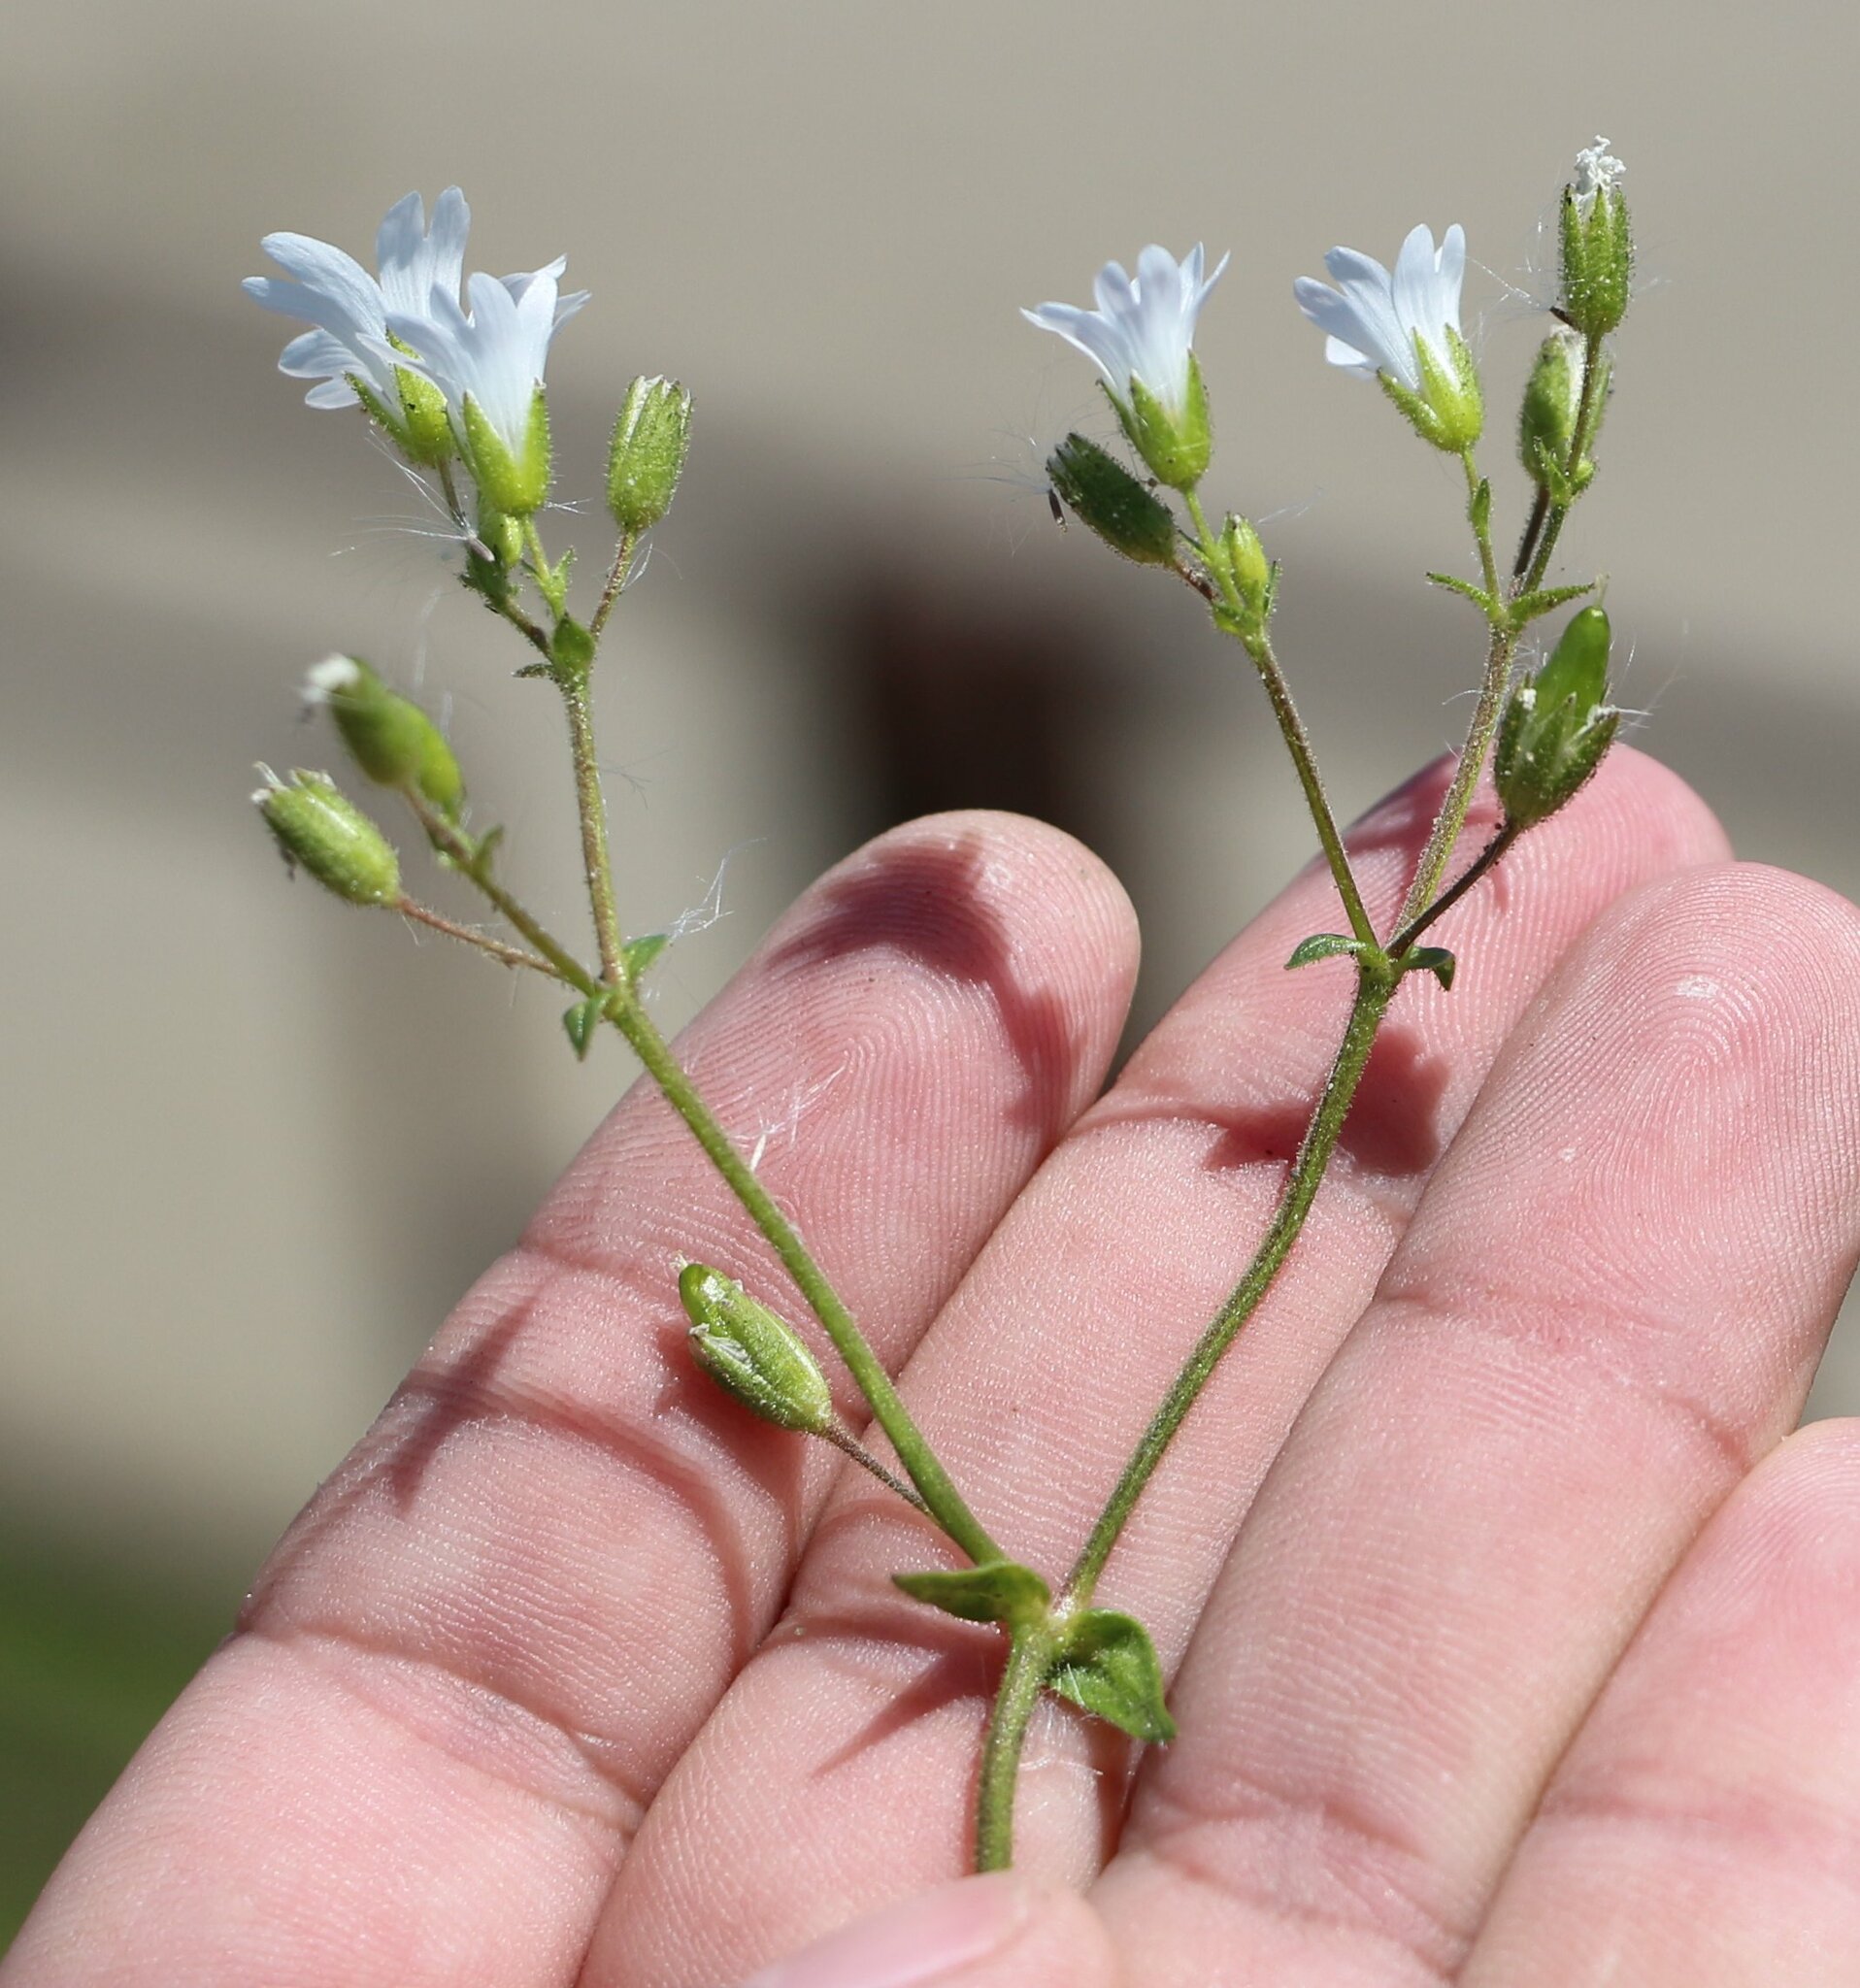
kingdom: Plantae
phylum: Tracheophyta
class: Magnoliopsida
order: Caryophyllales
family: Caryophyllaceae
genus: Dichodon
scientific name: Dichodon viscidum
